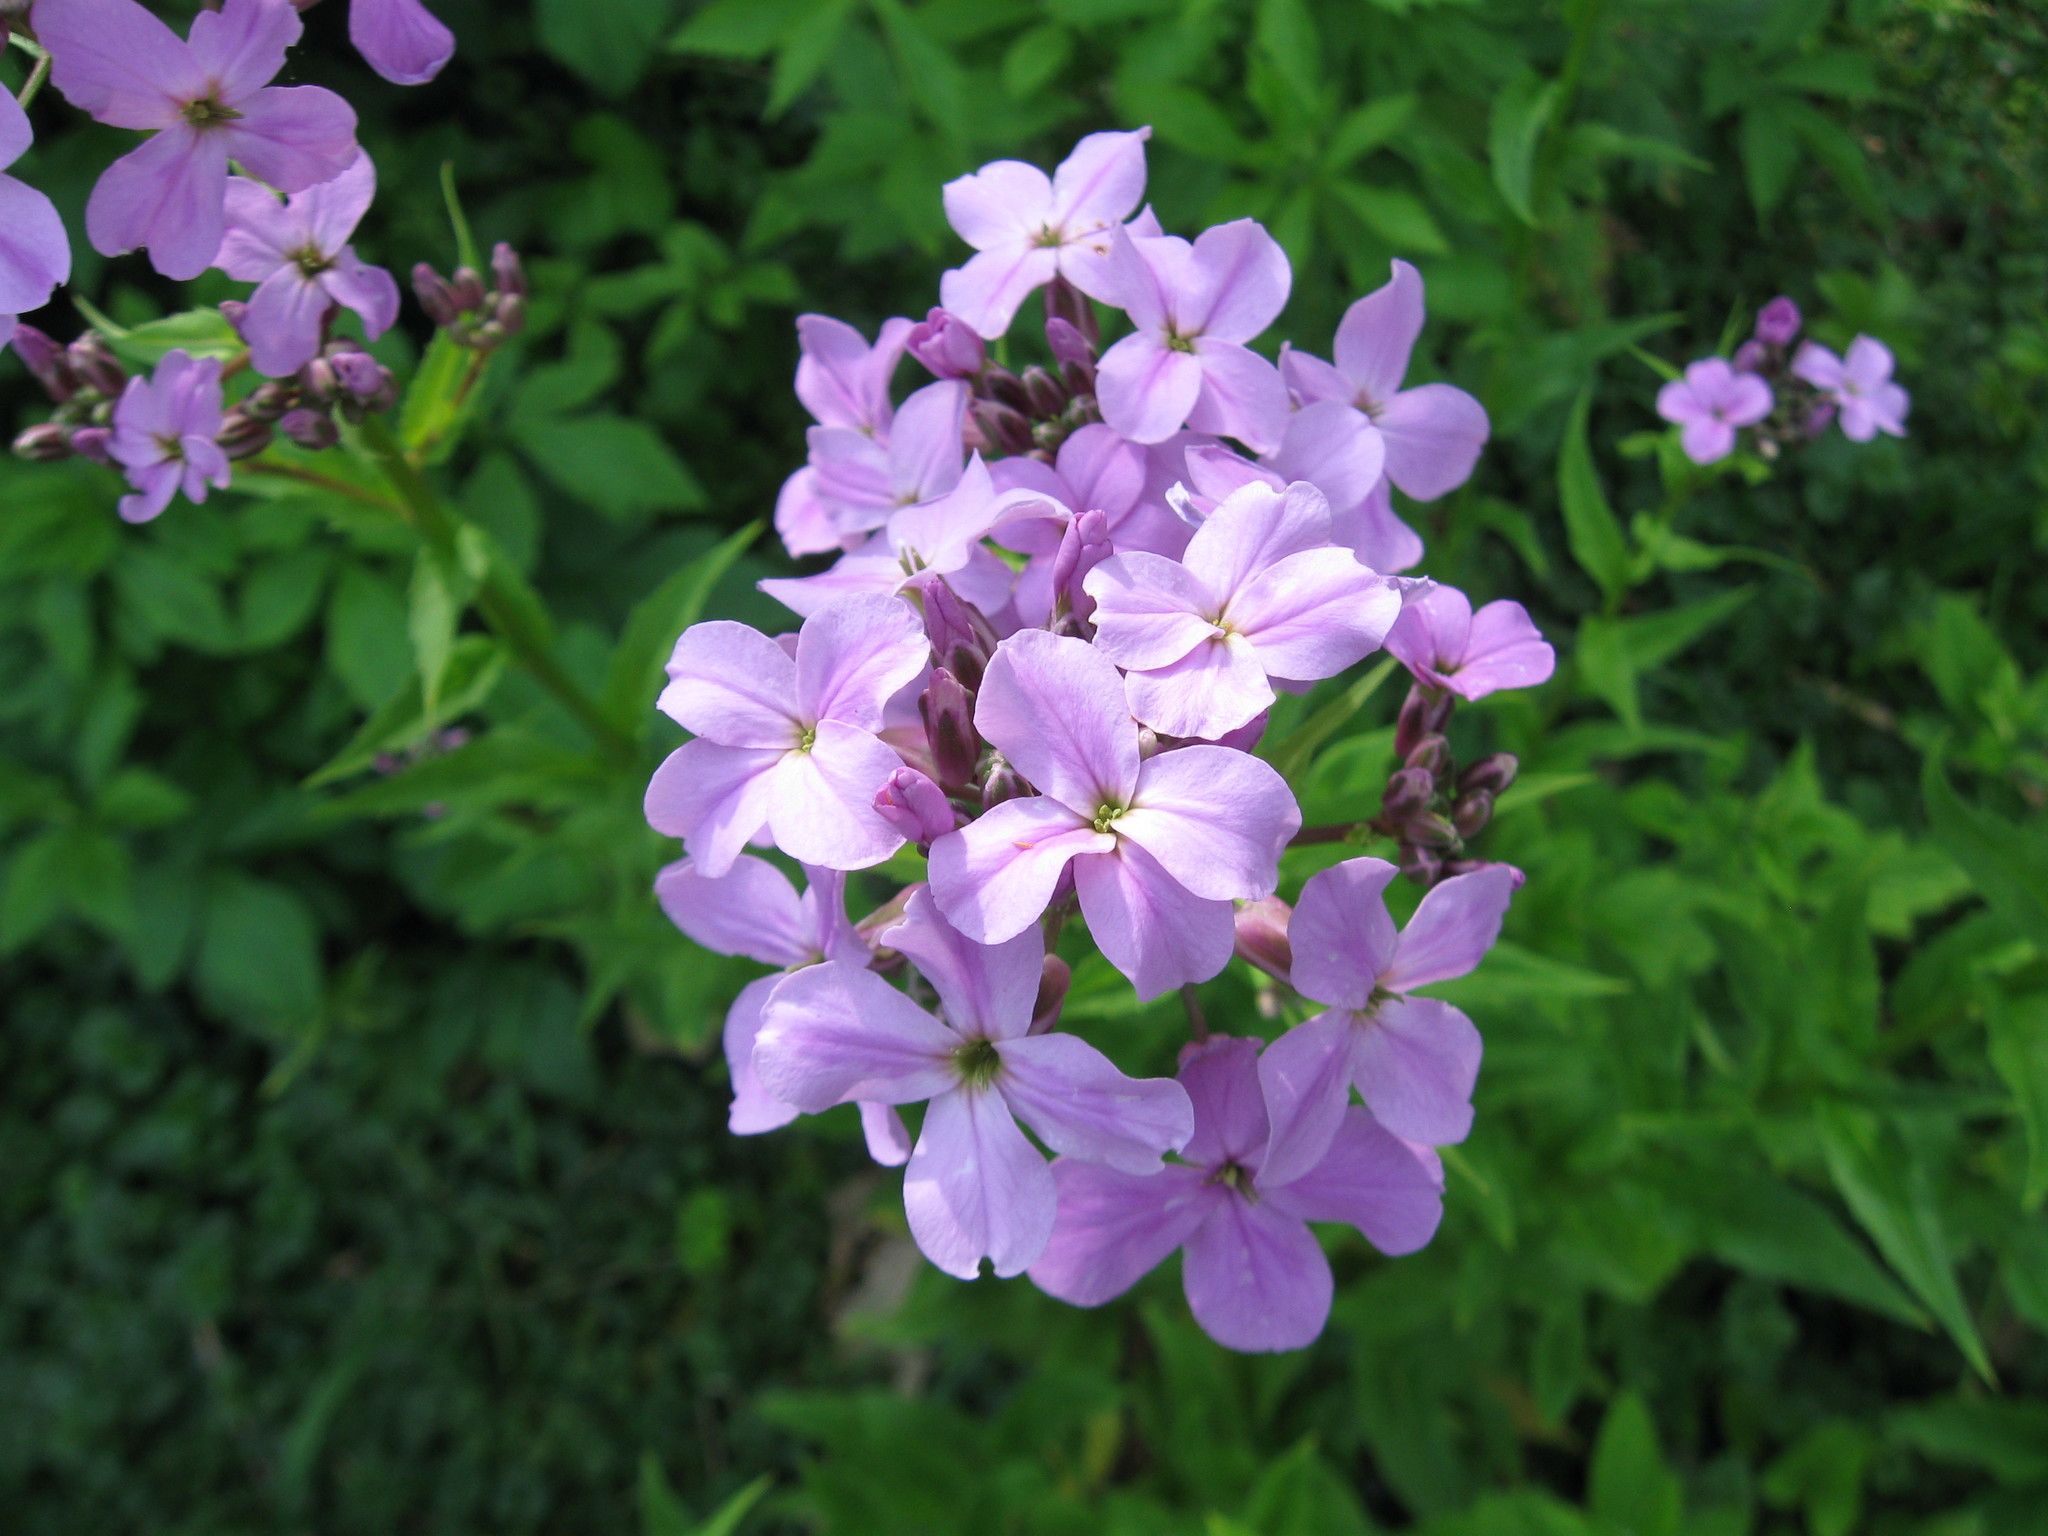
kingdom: Plantae
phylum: Tracheophyta
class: Magnoliopsida
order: Brassicales
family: Brassicaceae
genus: Hesperis
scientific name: Hesperis matronalis
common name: Dame's-violet
